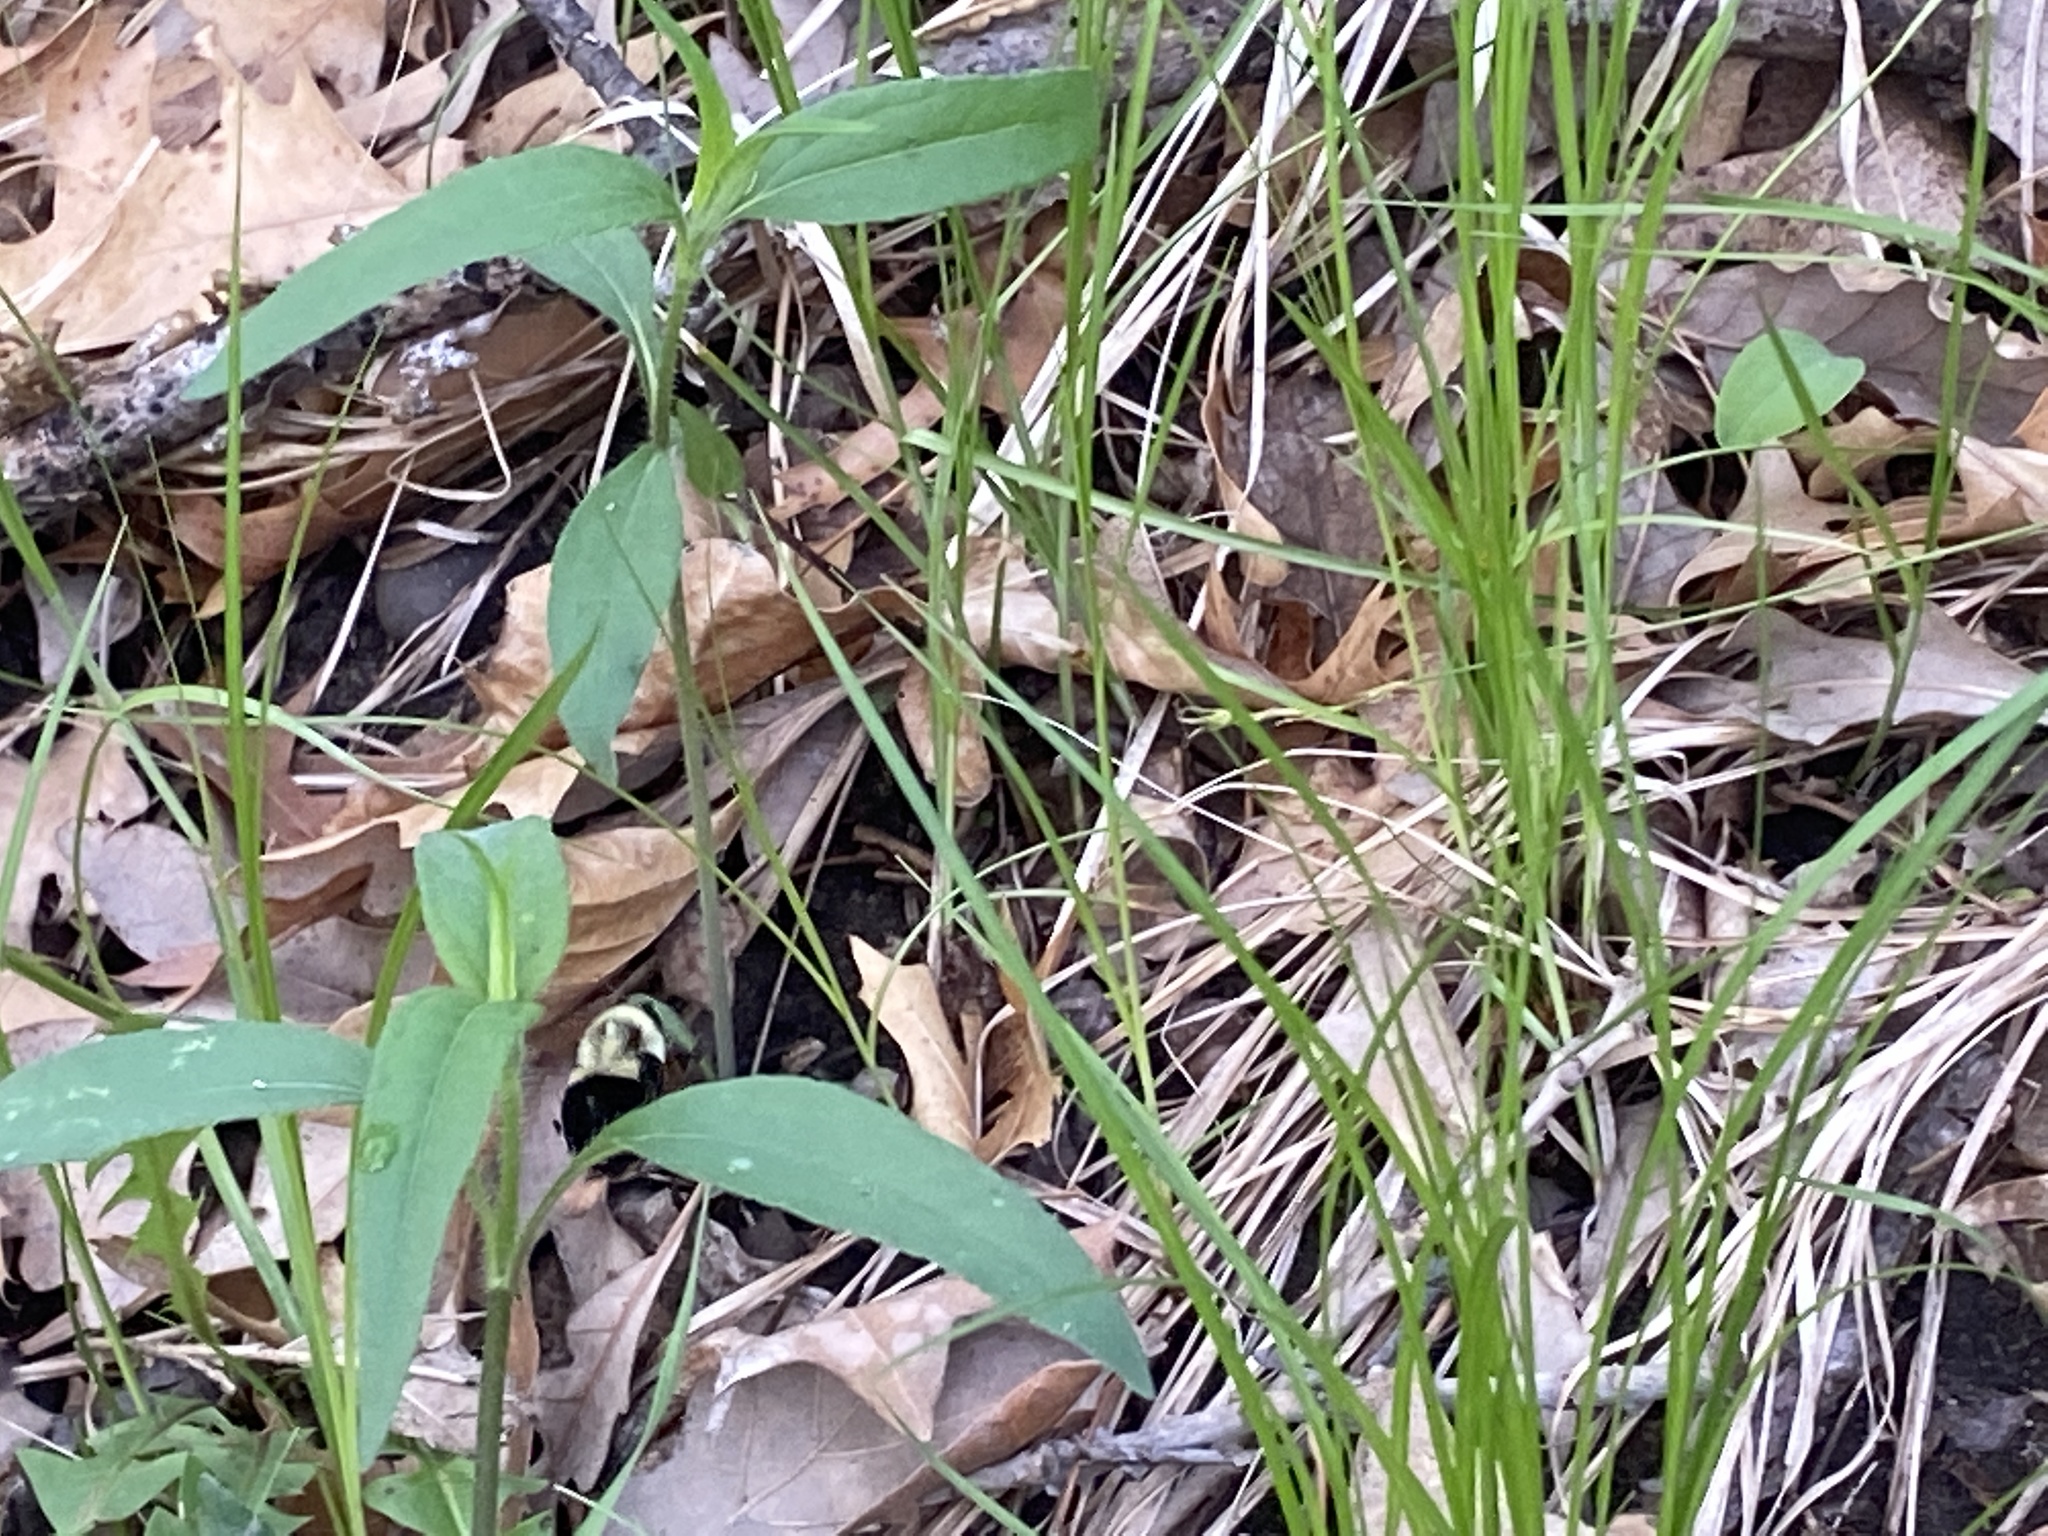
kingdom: Animalia
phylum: Arthropoda
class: Insecta
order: Hymenoptera
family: Apidae
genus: Bombus
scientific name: Bombus impatiens
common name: Common eastern bumble bee
